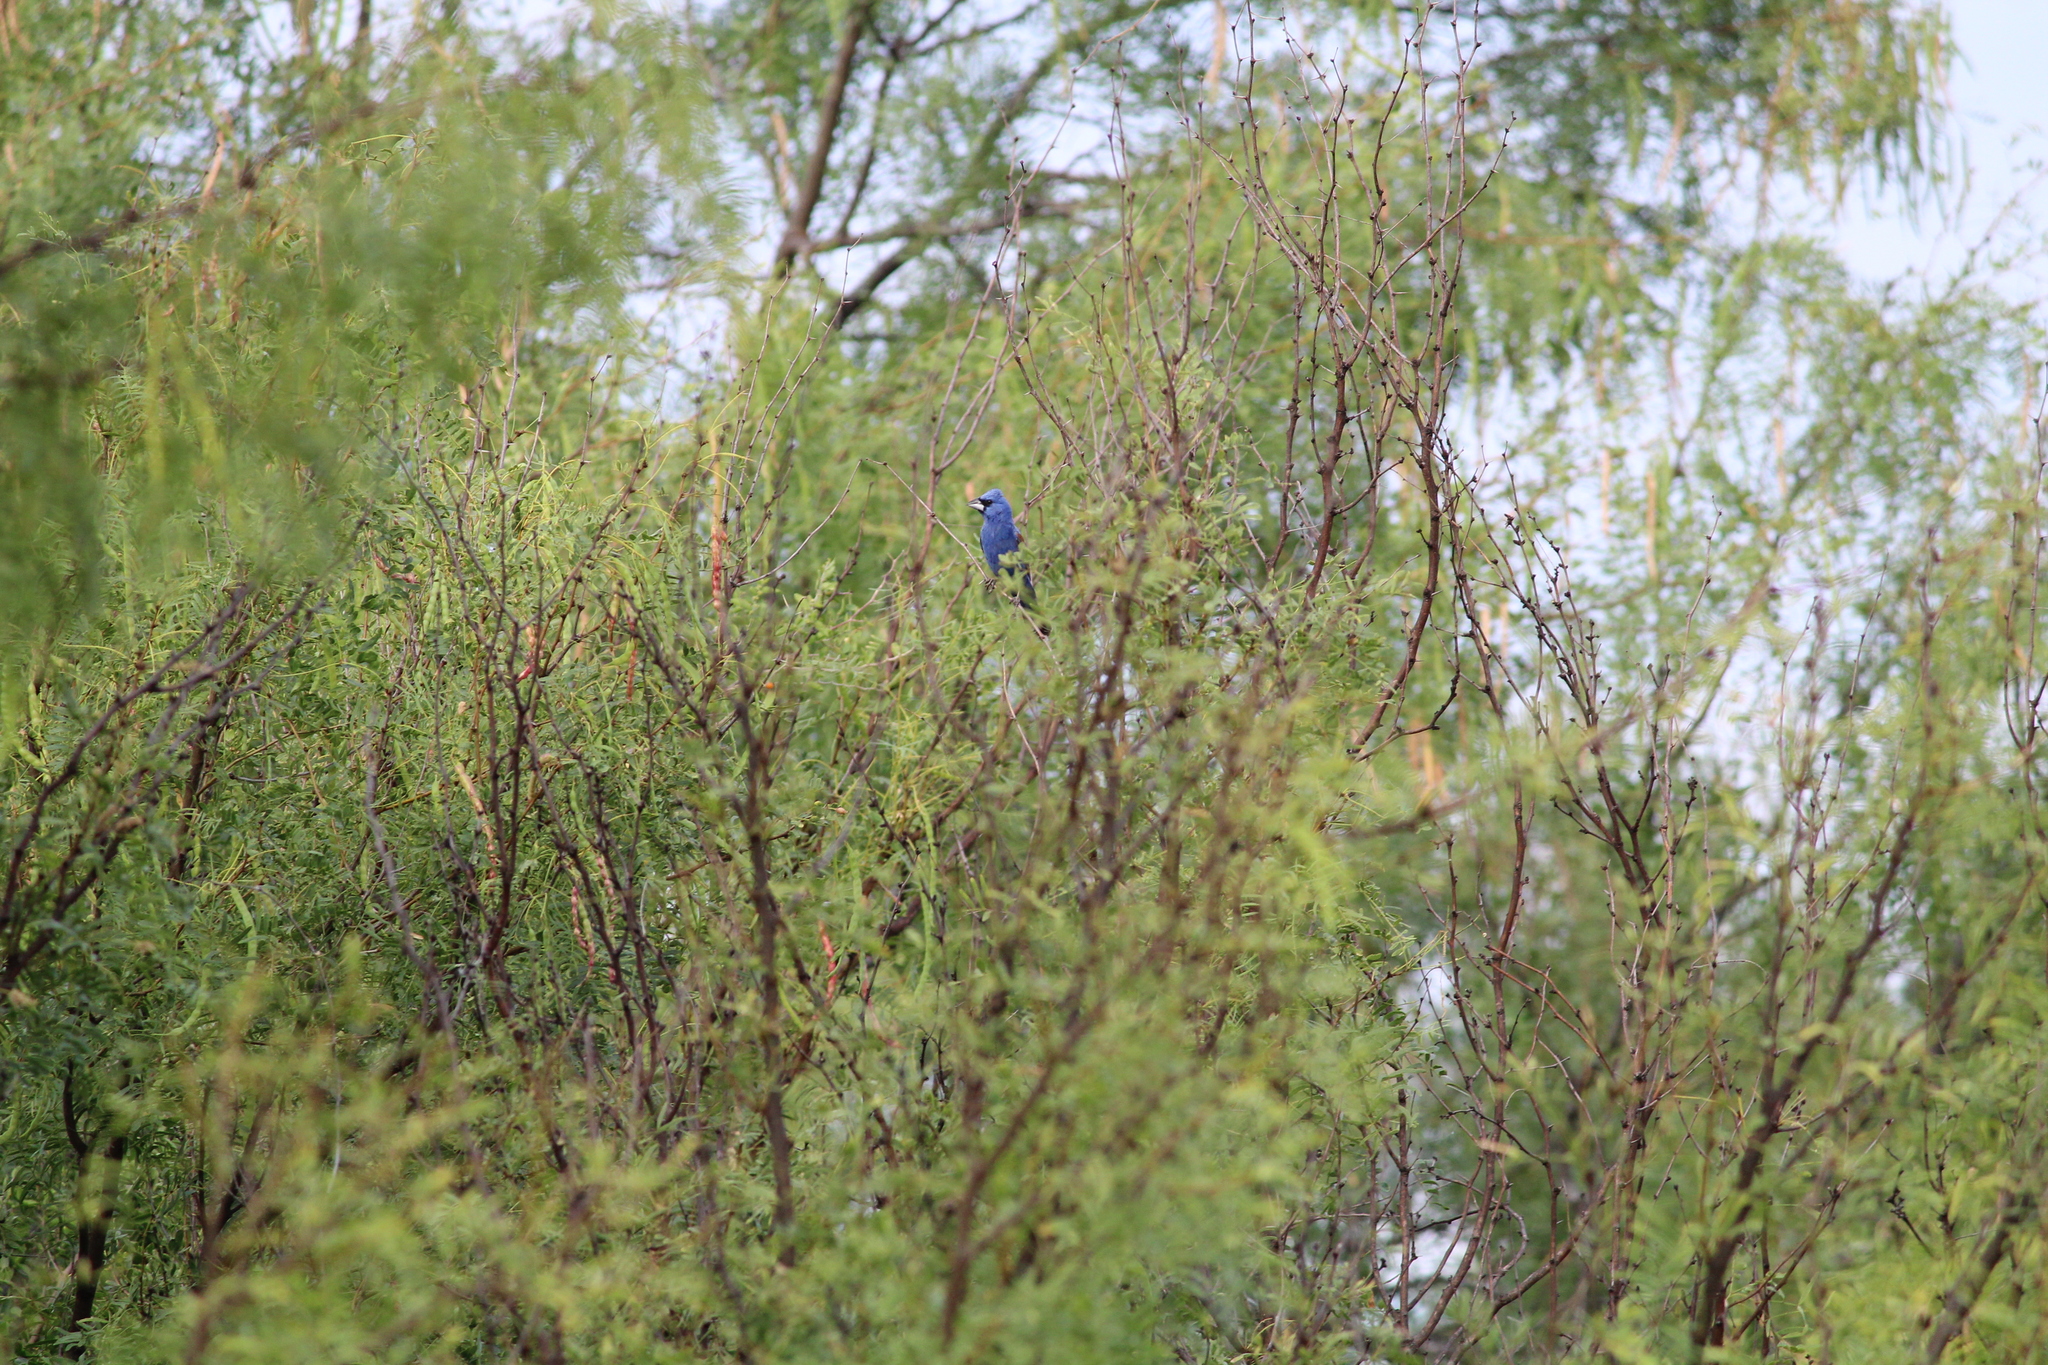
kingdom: Animalia
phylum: Chordata
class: Aves
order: Passeriformes
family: Cardinalidae
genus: Passerina
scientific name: Passerina caerulea
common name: Blue grosbeak
